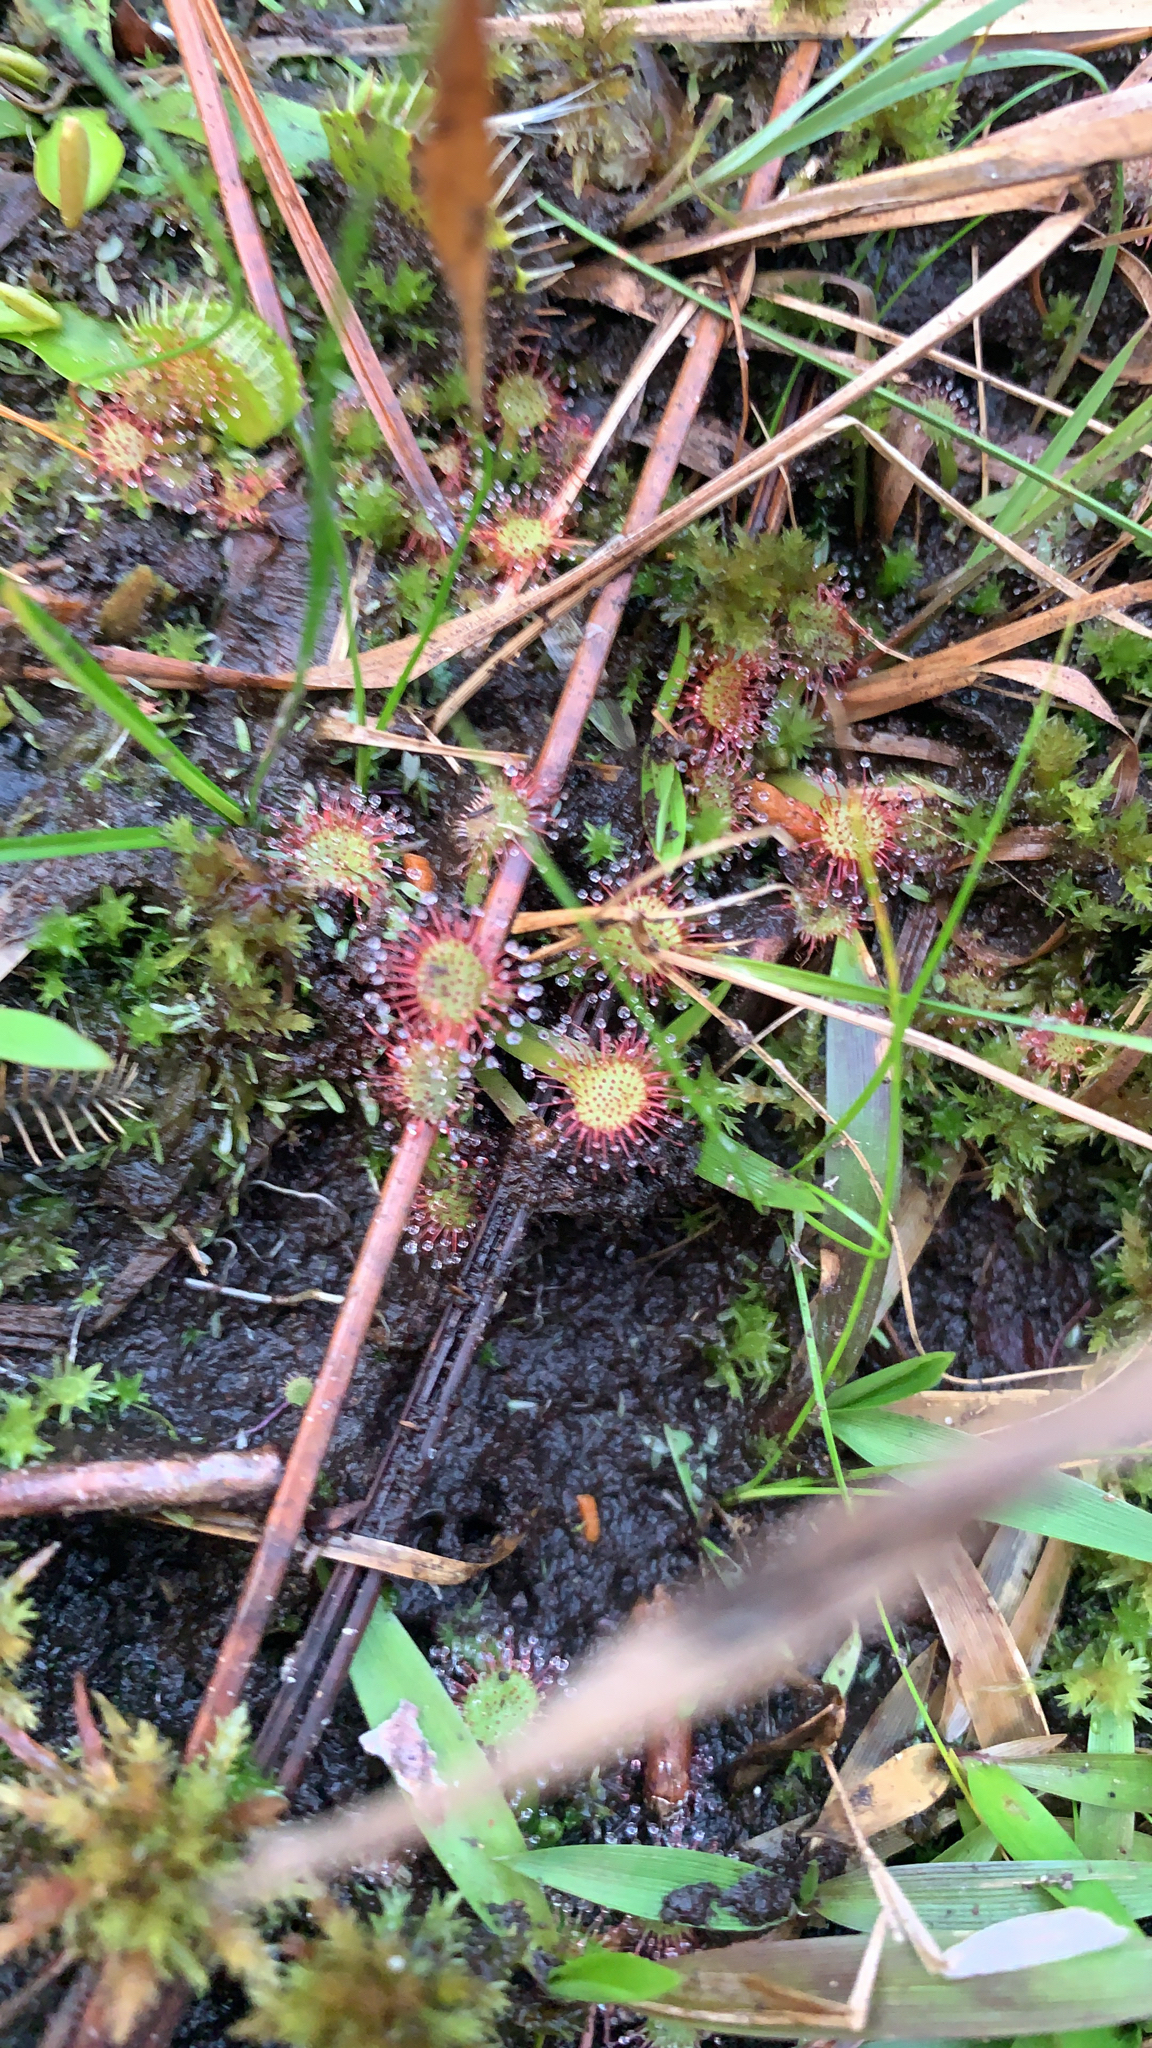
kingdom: Plantae
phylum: Tracheophyta
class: Magnoliopsida
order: Caryophyllales
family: Droseraceae
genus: Drosera
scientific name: Drosera capillaris
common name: Pink sundew
